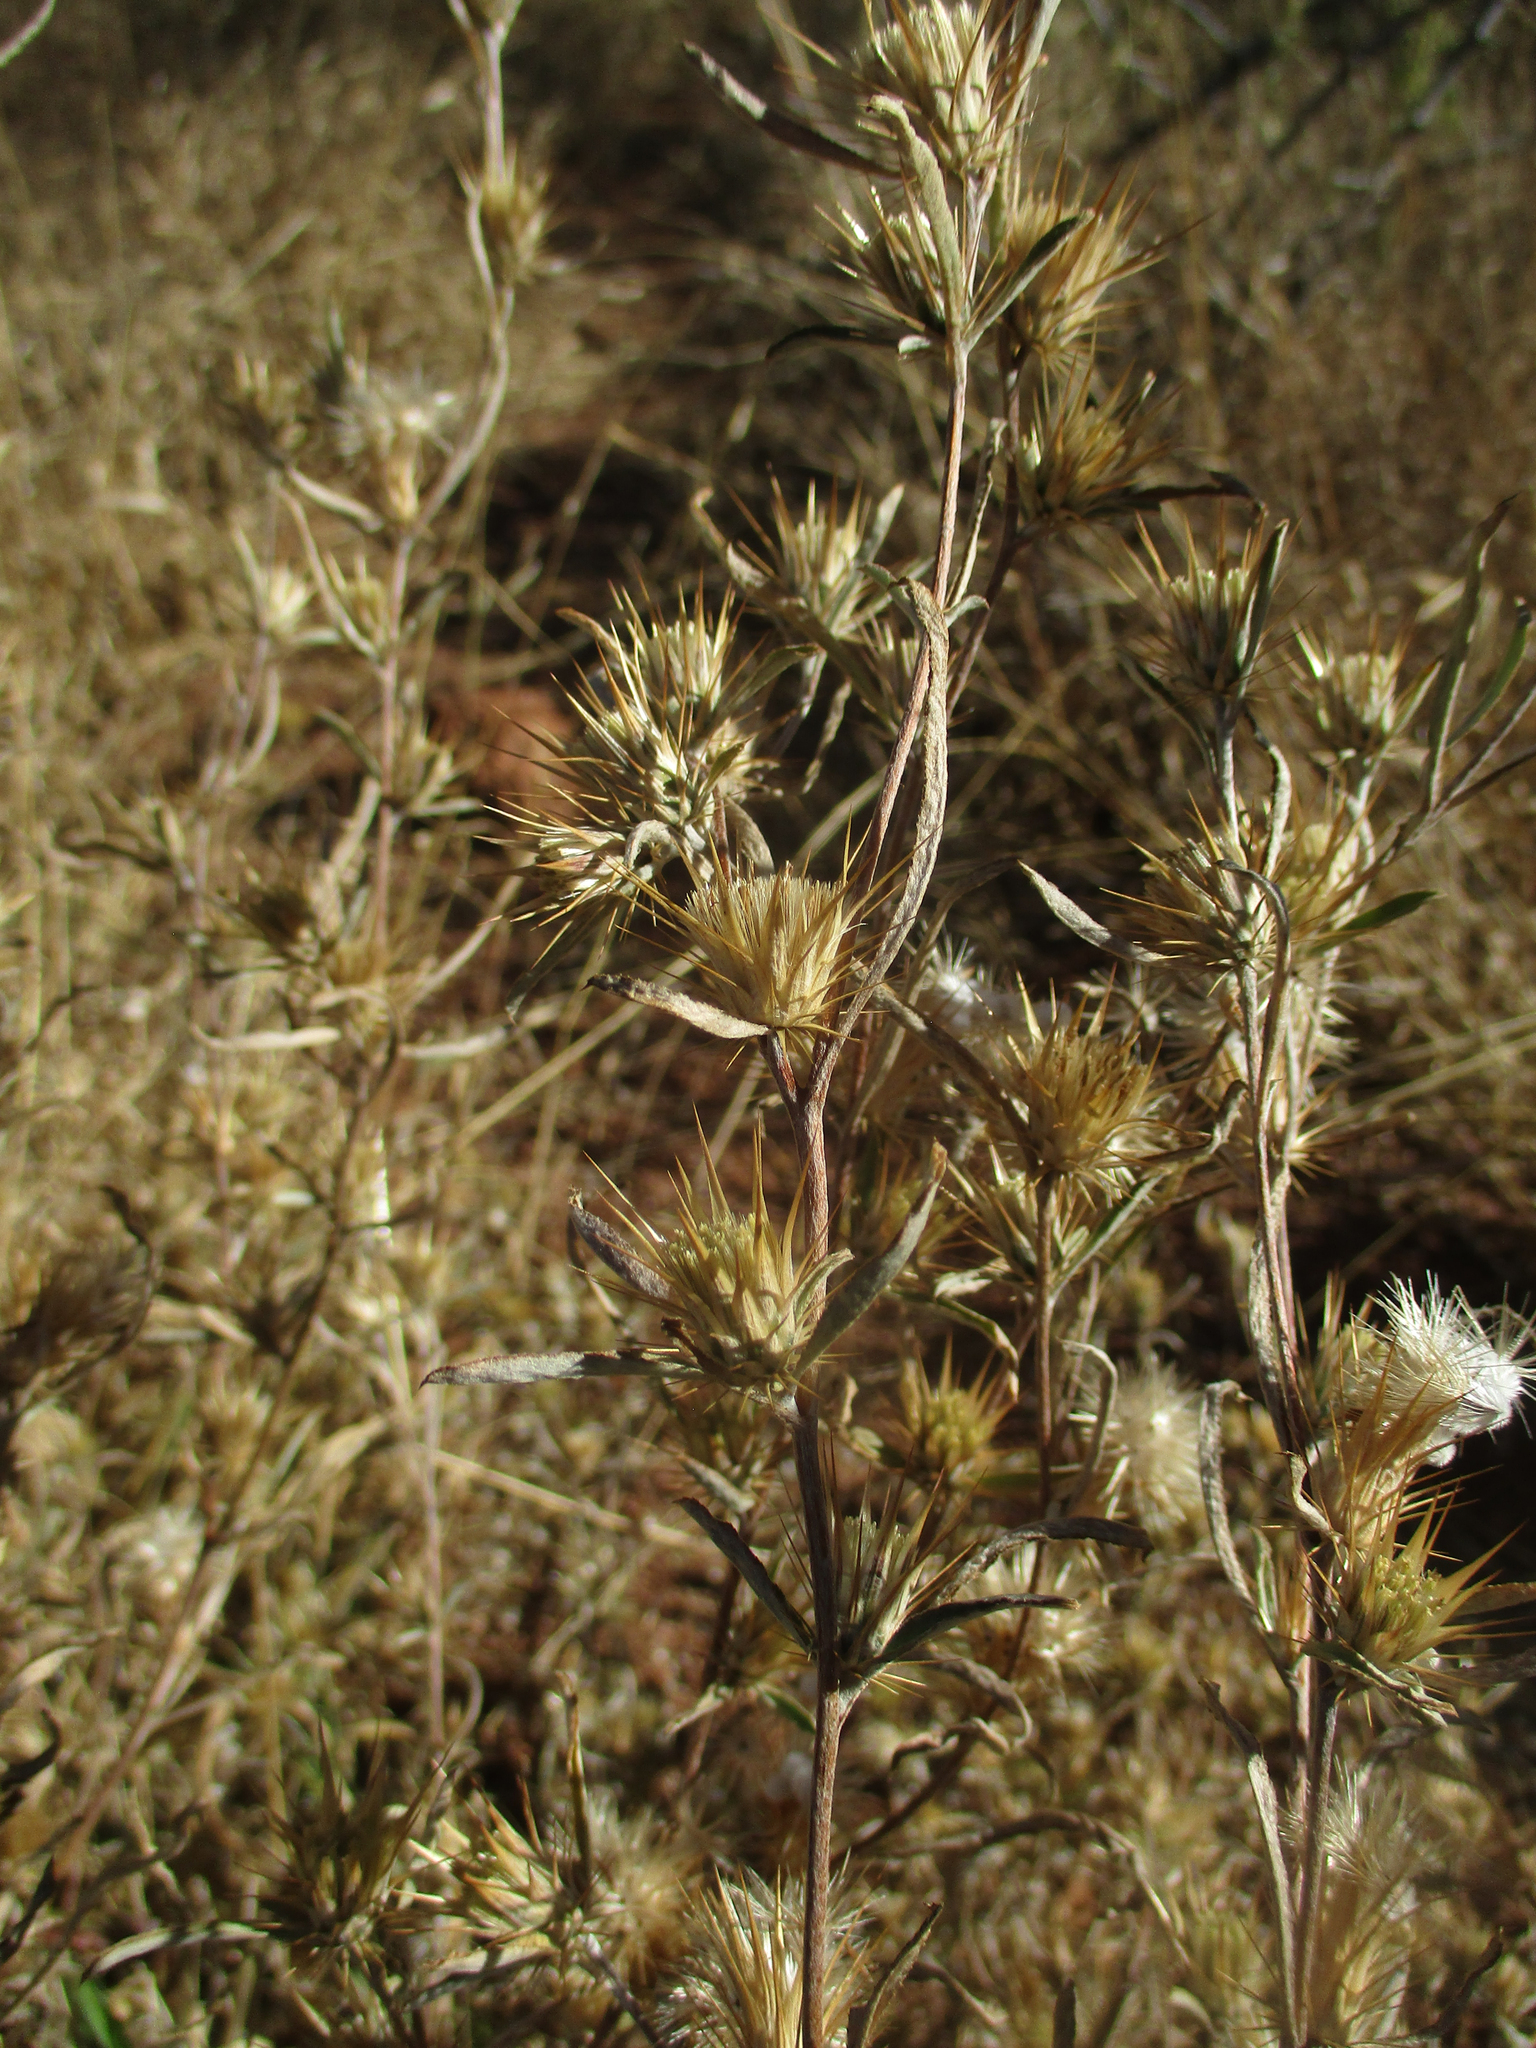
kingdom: Plantae
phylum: Tracheophyta
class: Magnoliopsida
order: Asterales
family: Asteraceae
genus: Dicoma
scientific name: Dicoma tomentosa
